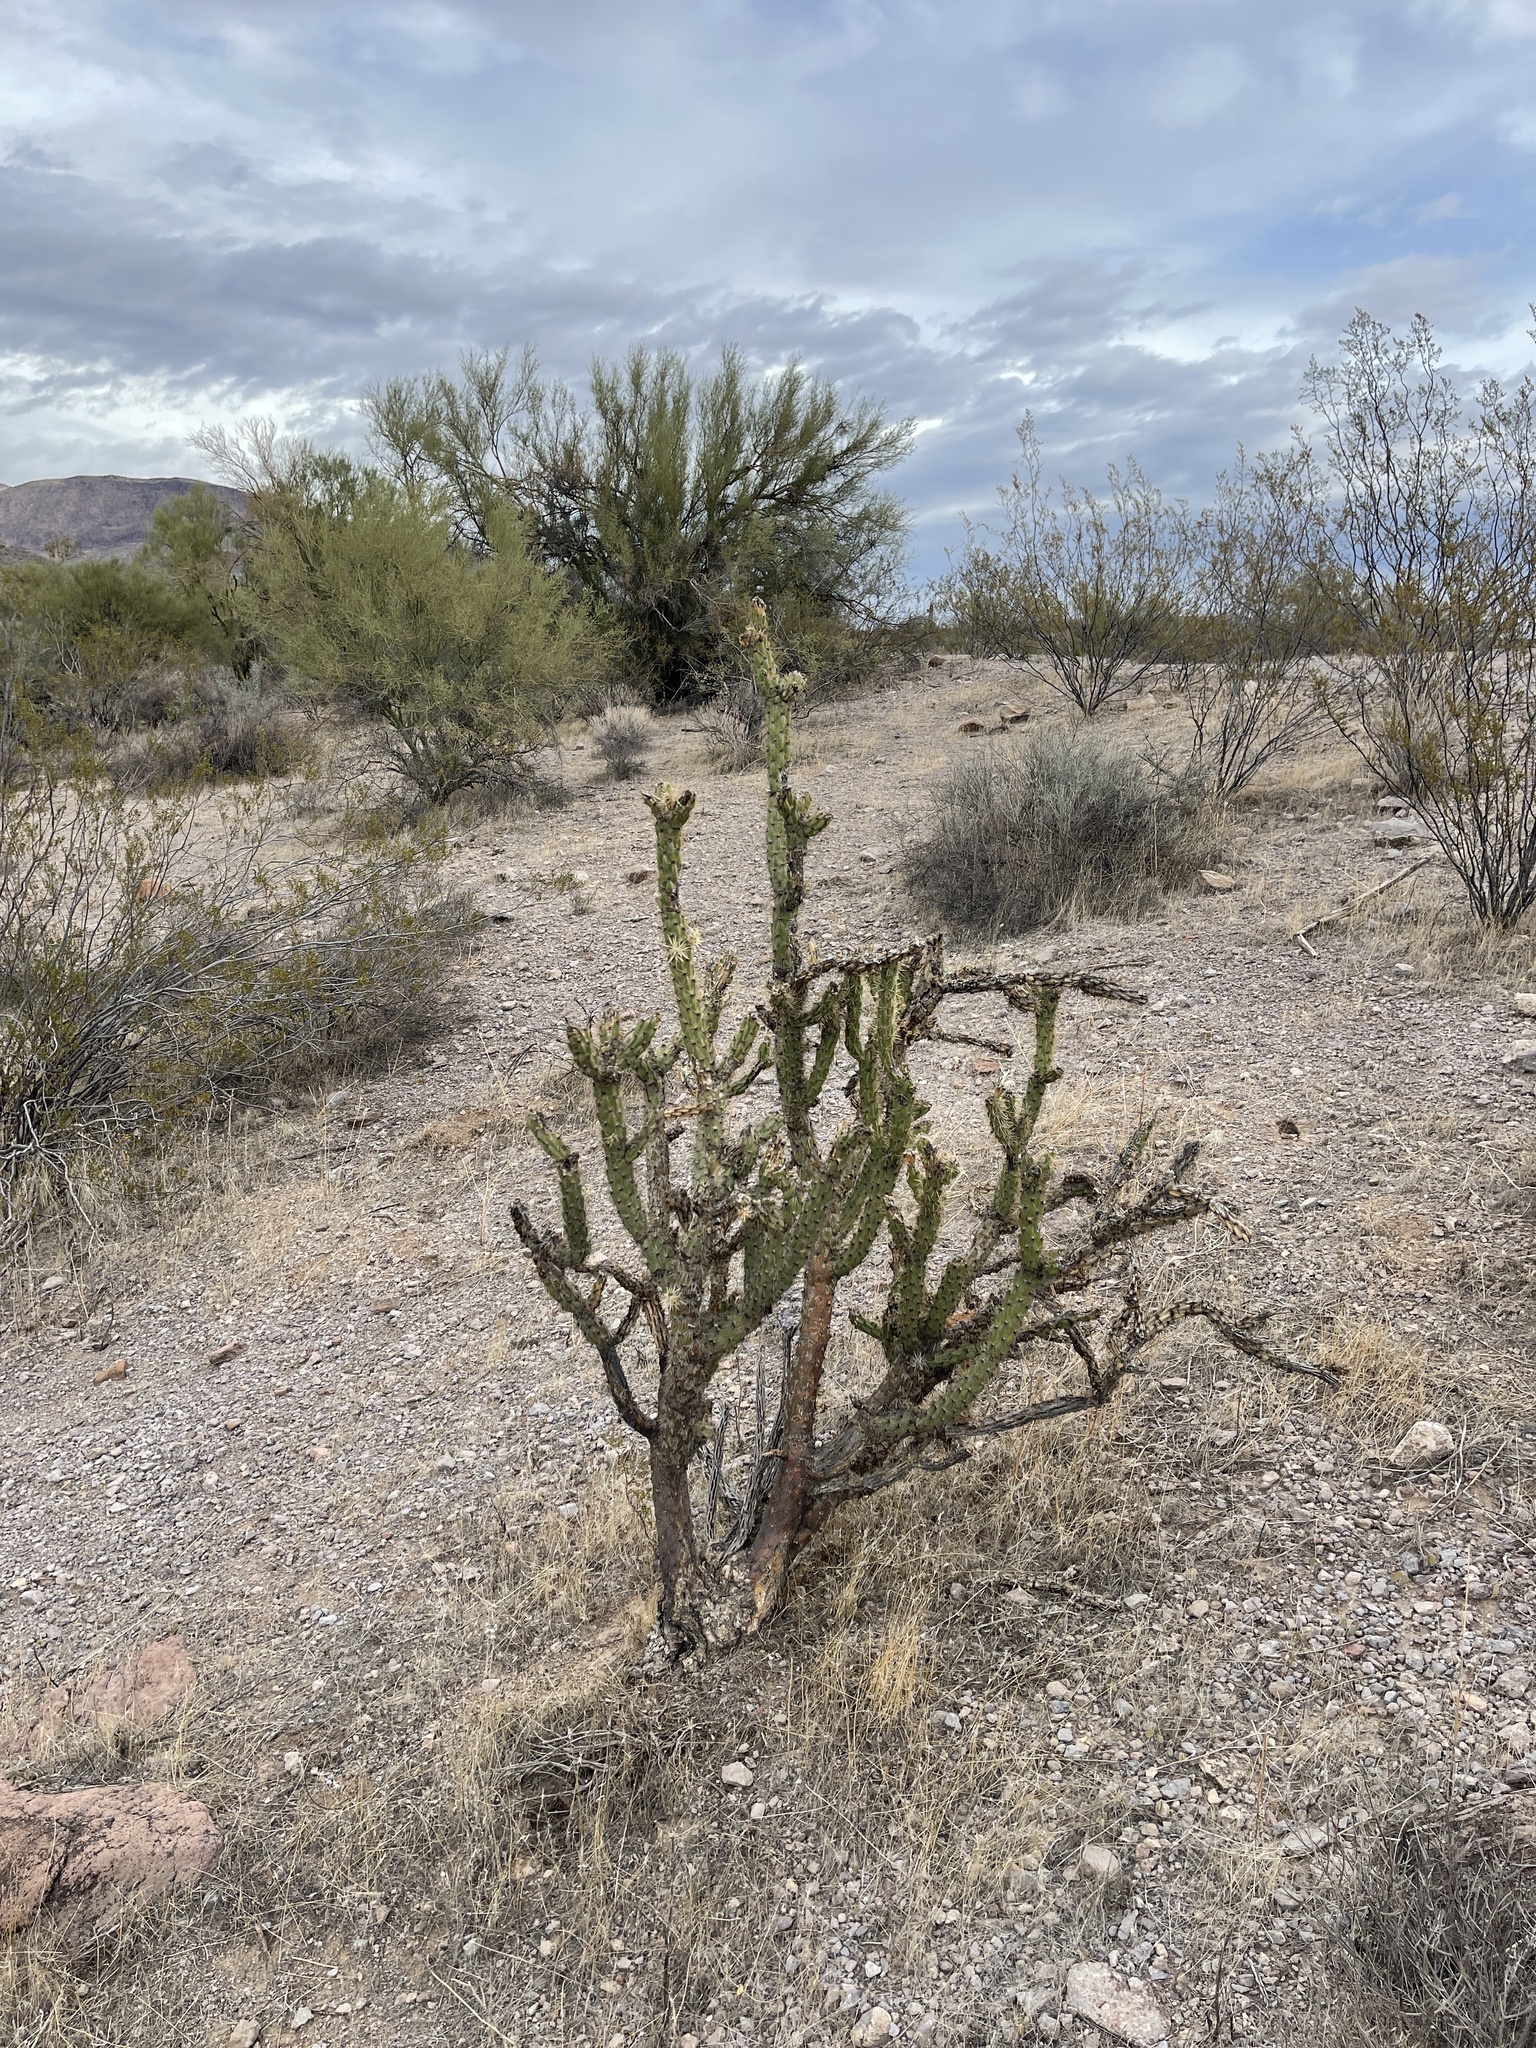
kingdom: Plantae
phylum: Tracheophyta
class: Magnoliopsida
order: Caryophyllales
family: Cactaceae
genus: Cylindropuntia
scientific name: Cylindropuntia acanthocarpa
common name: Buckhorn cholla
